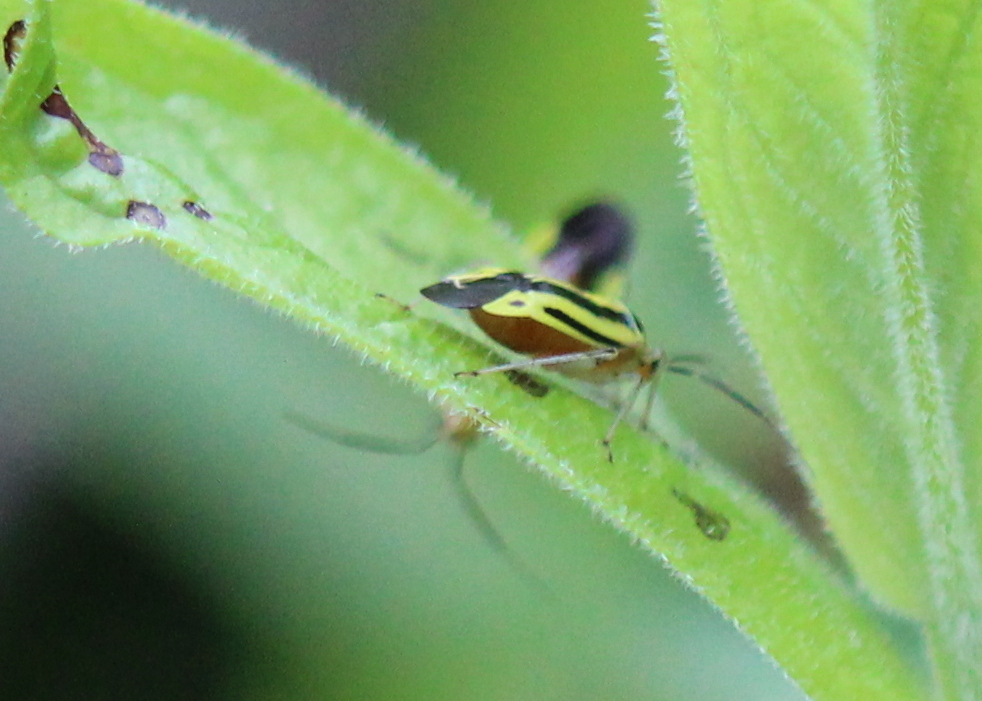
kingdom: Animalia
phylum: Arthropoda
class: Insecta
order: Hemiptera
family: Miridae
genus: Poecilocapsus
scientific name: Poecilocapsus lineatus
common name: Four-lined plant bug
